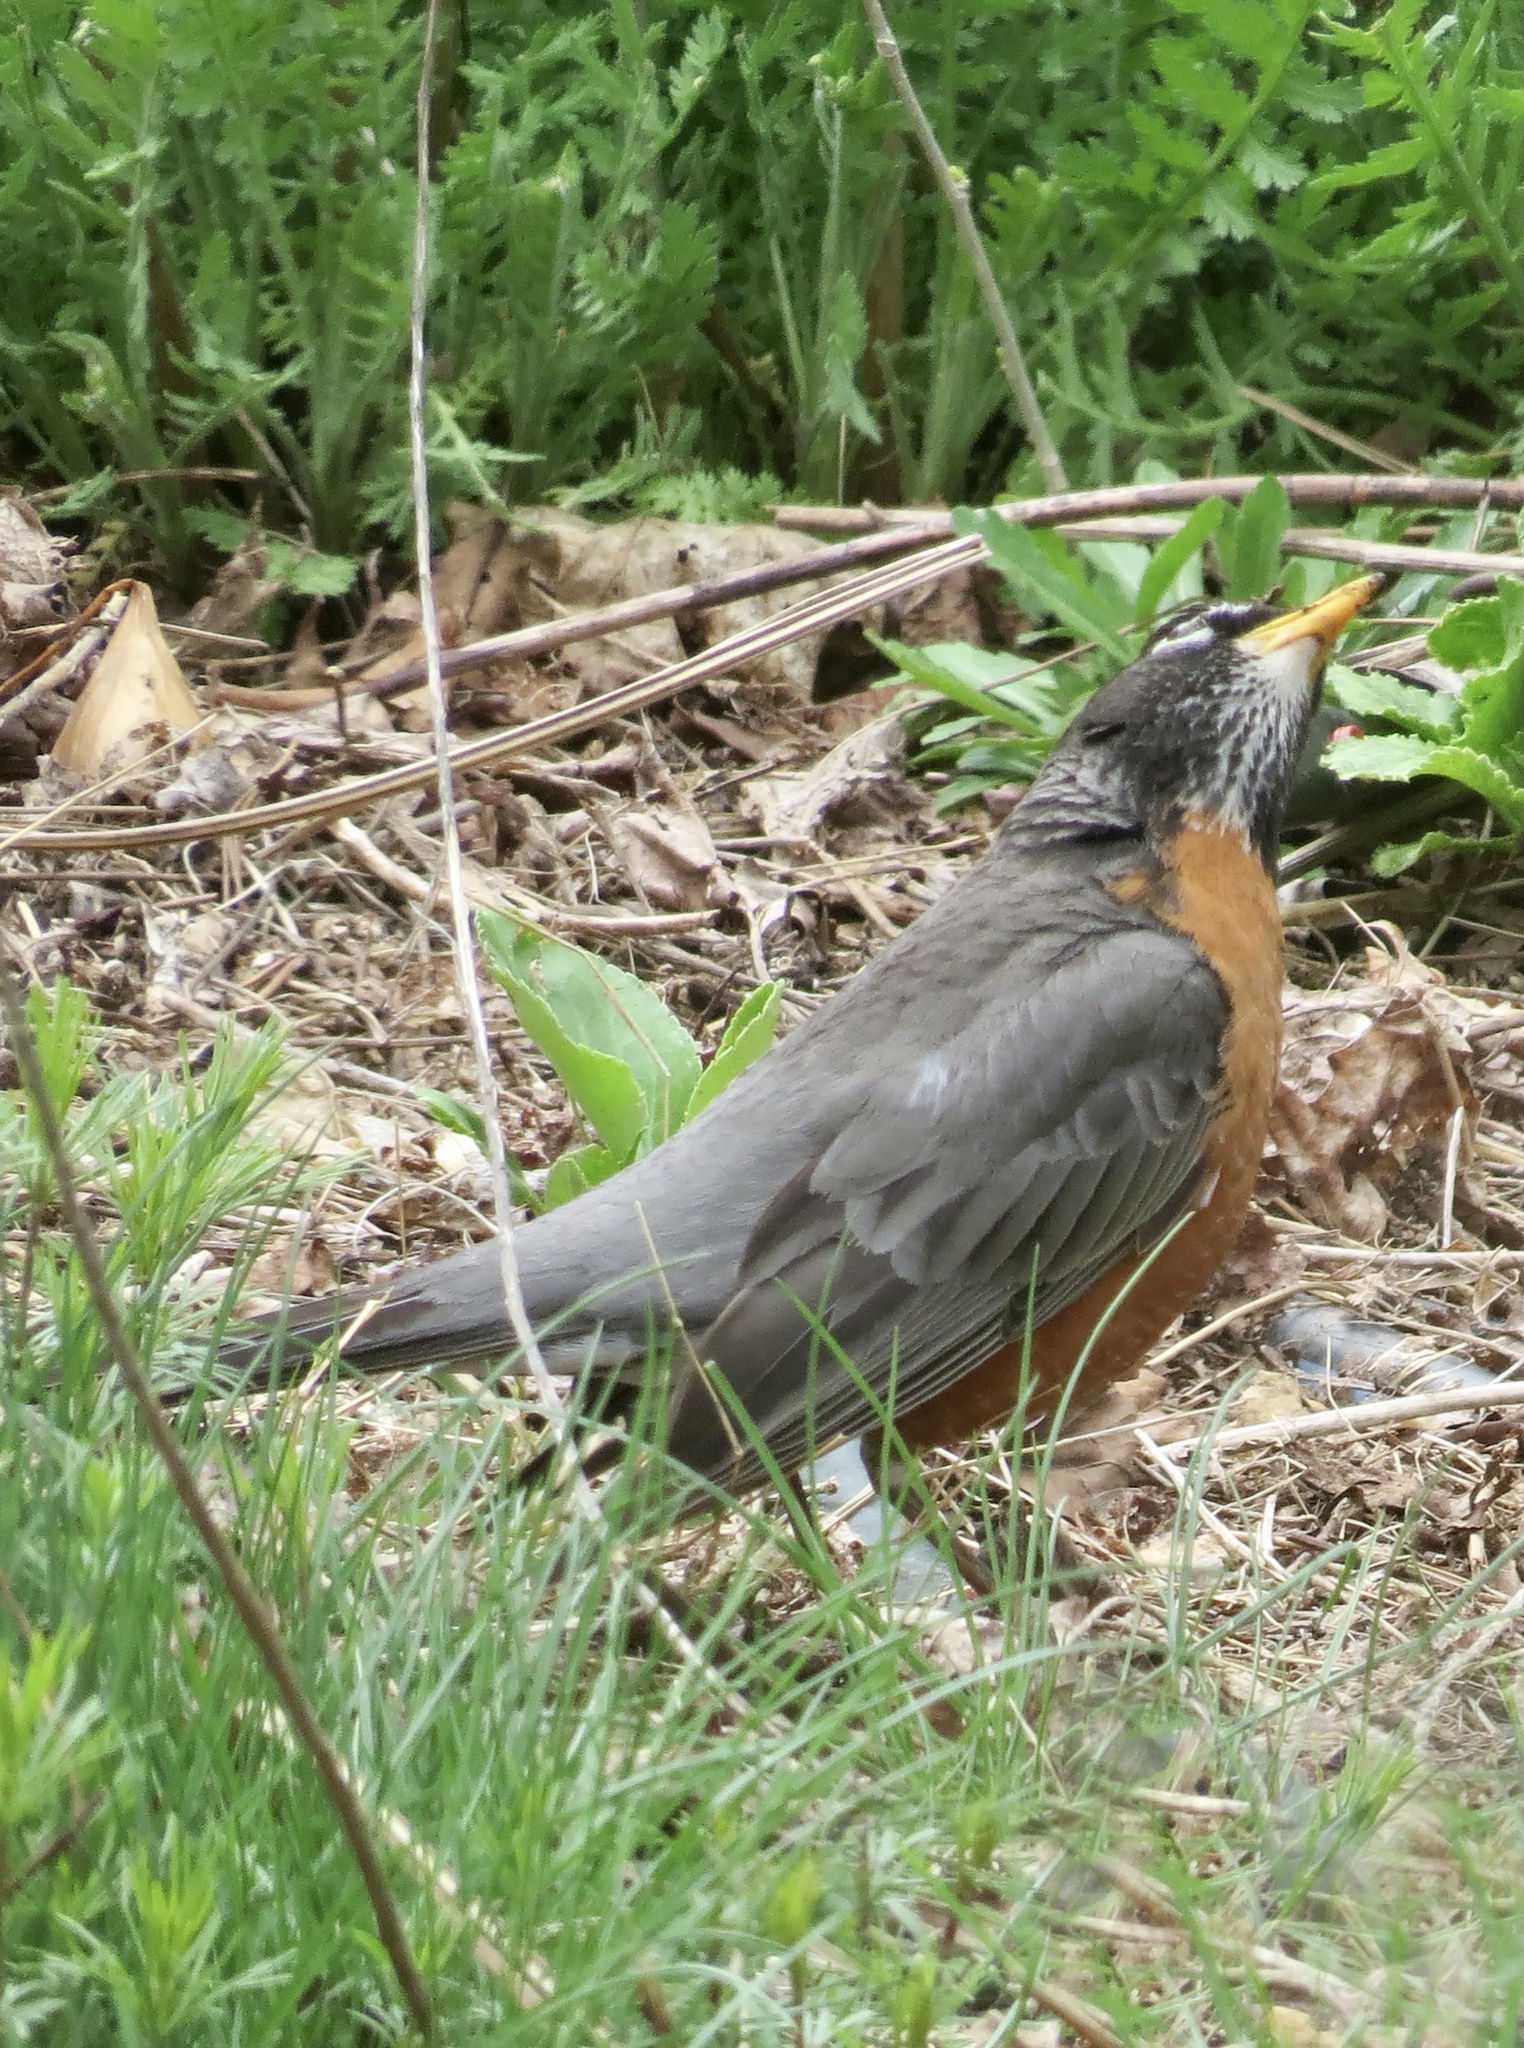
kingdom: Animalia
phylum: Chordata
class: Aves
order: Passeriformes
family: Turdidae
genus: Turdus
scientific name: Turdus migratorius
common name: American robin
